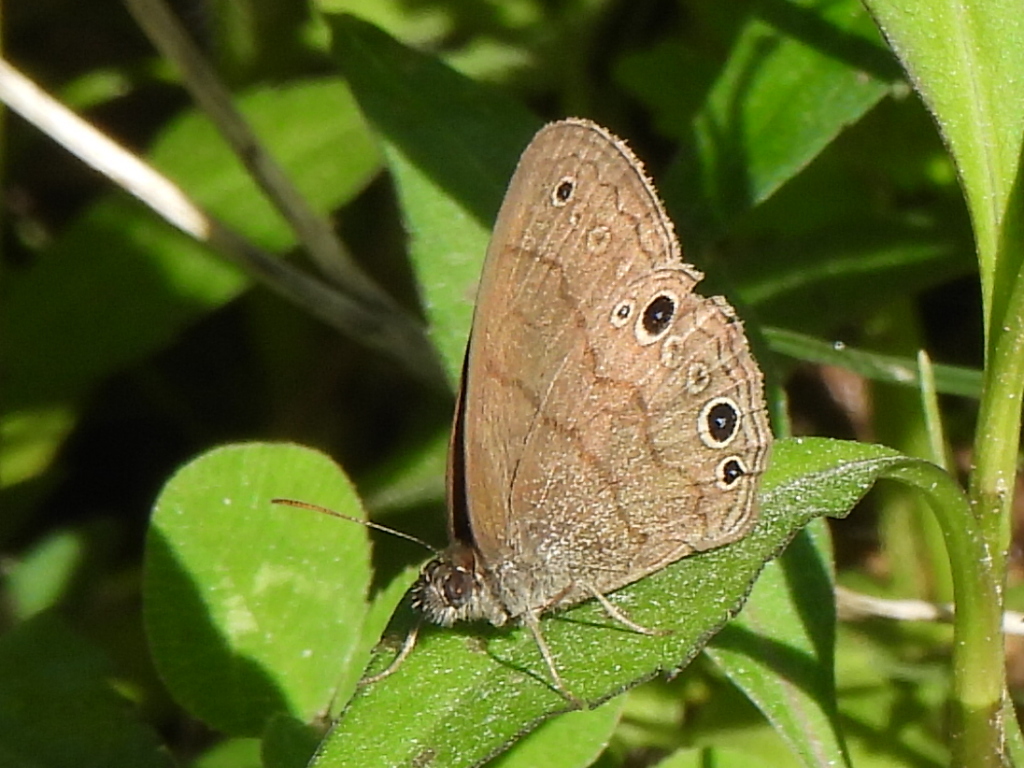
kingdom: Animalia
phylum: Arthropoda
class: Insecta
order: Lepidoptera
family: Nymphalidae
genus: Hermeuptychia
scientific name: Hermeuptychia hermes
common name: Hermes satyr
